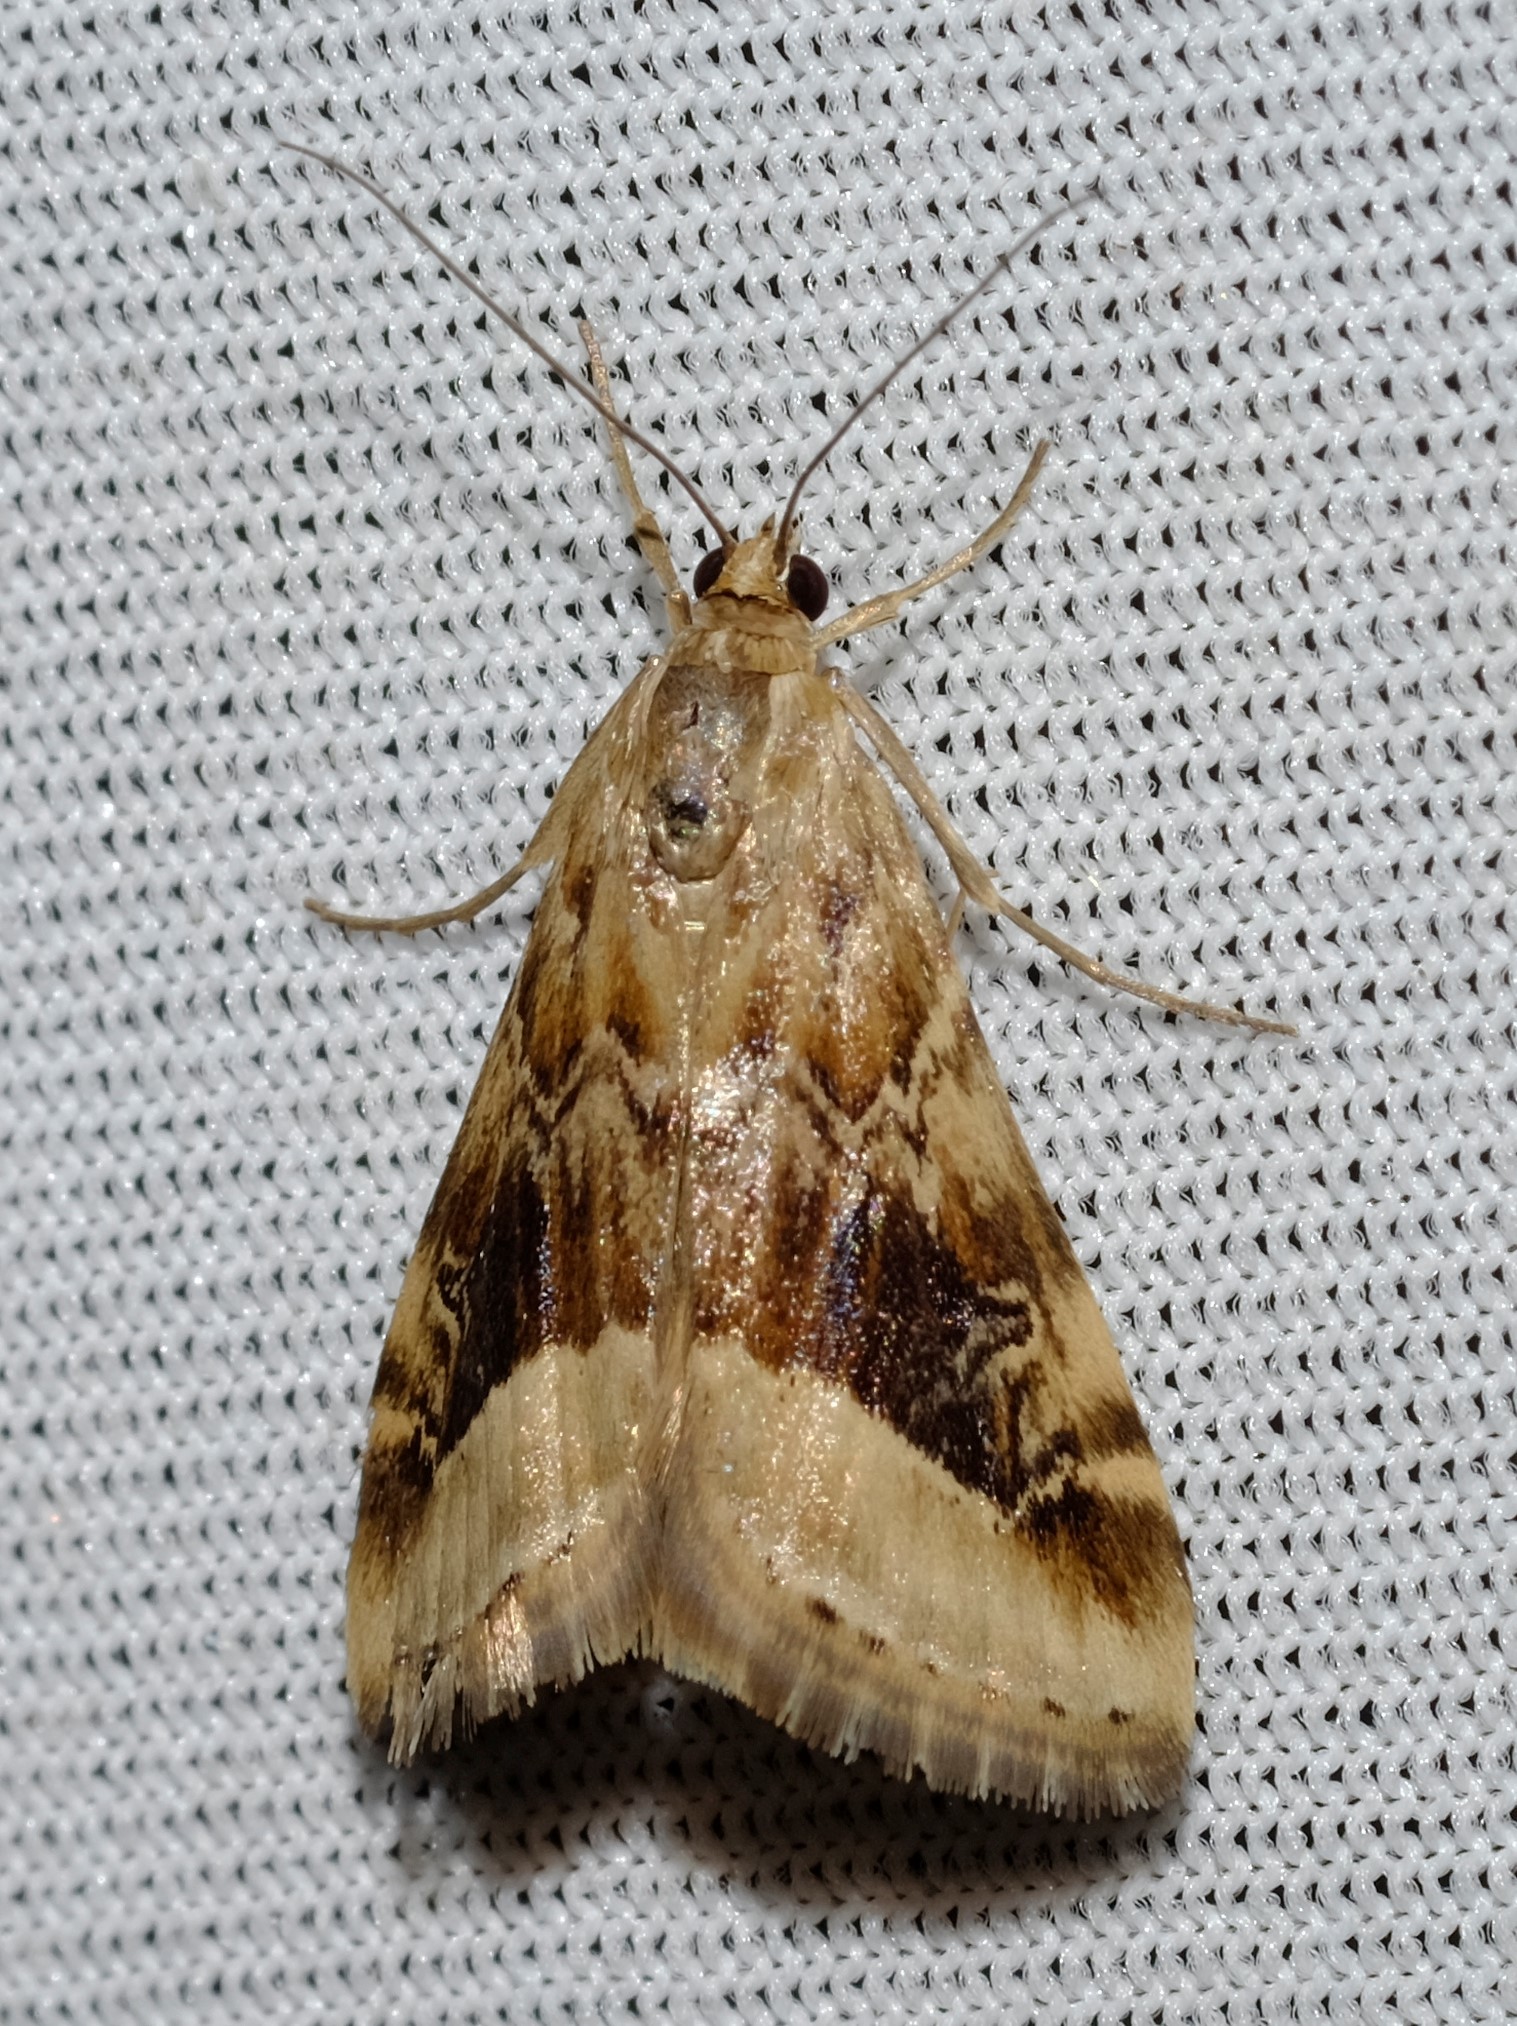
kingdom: Animalia
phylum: Arthropoda
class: Insecta
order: Lepidoptera
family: Crambidae
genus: Hellula
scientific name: Hellula hydralis
